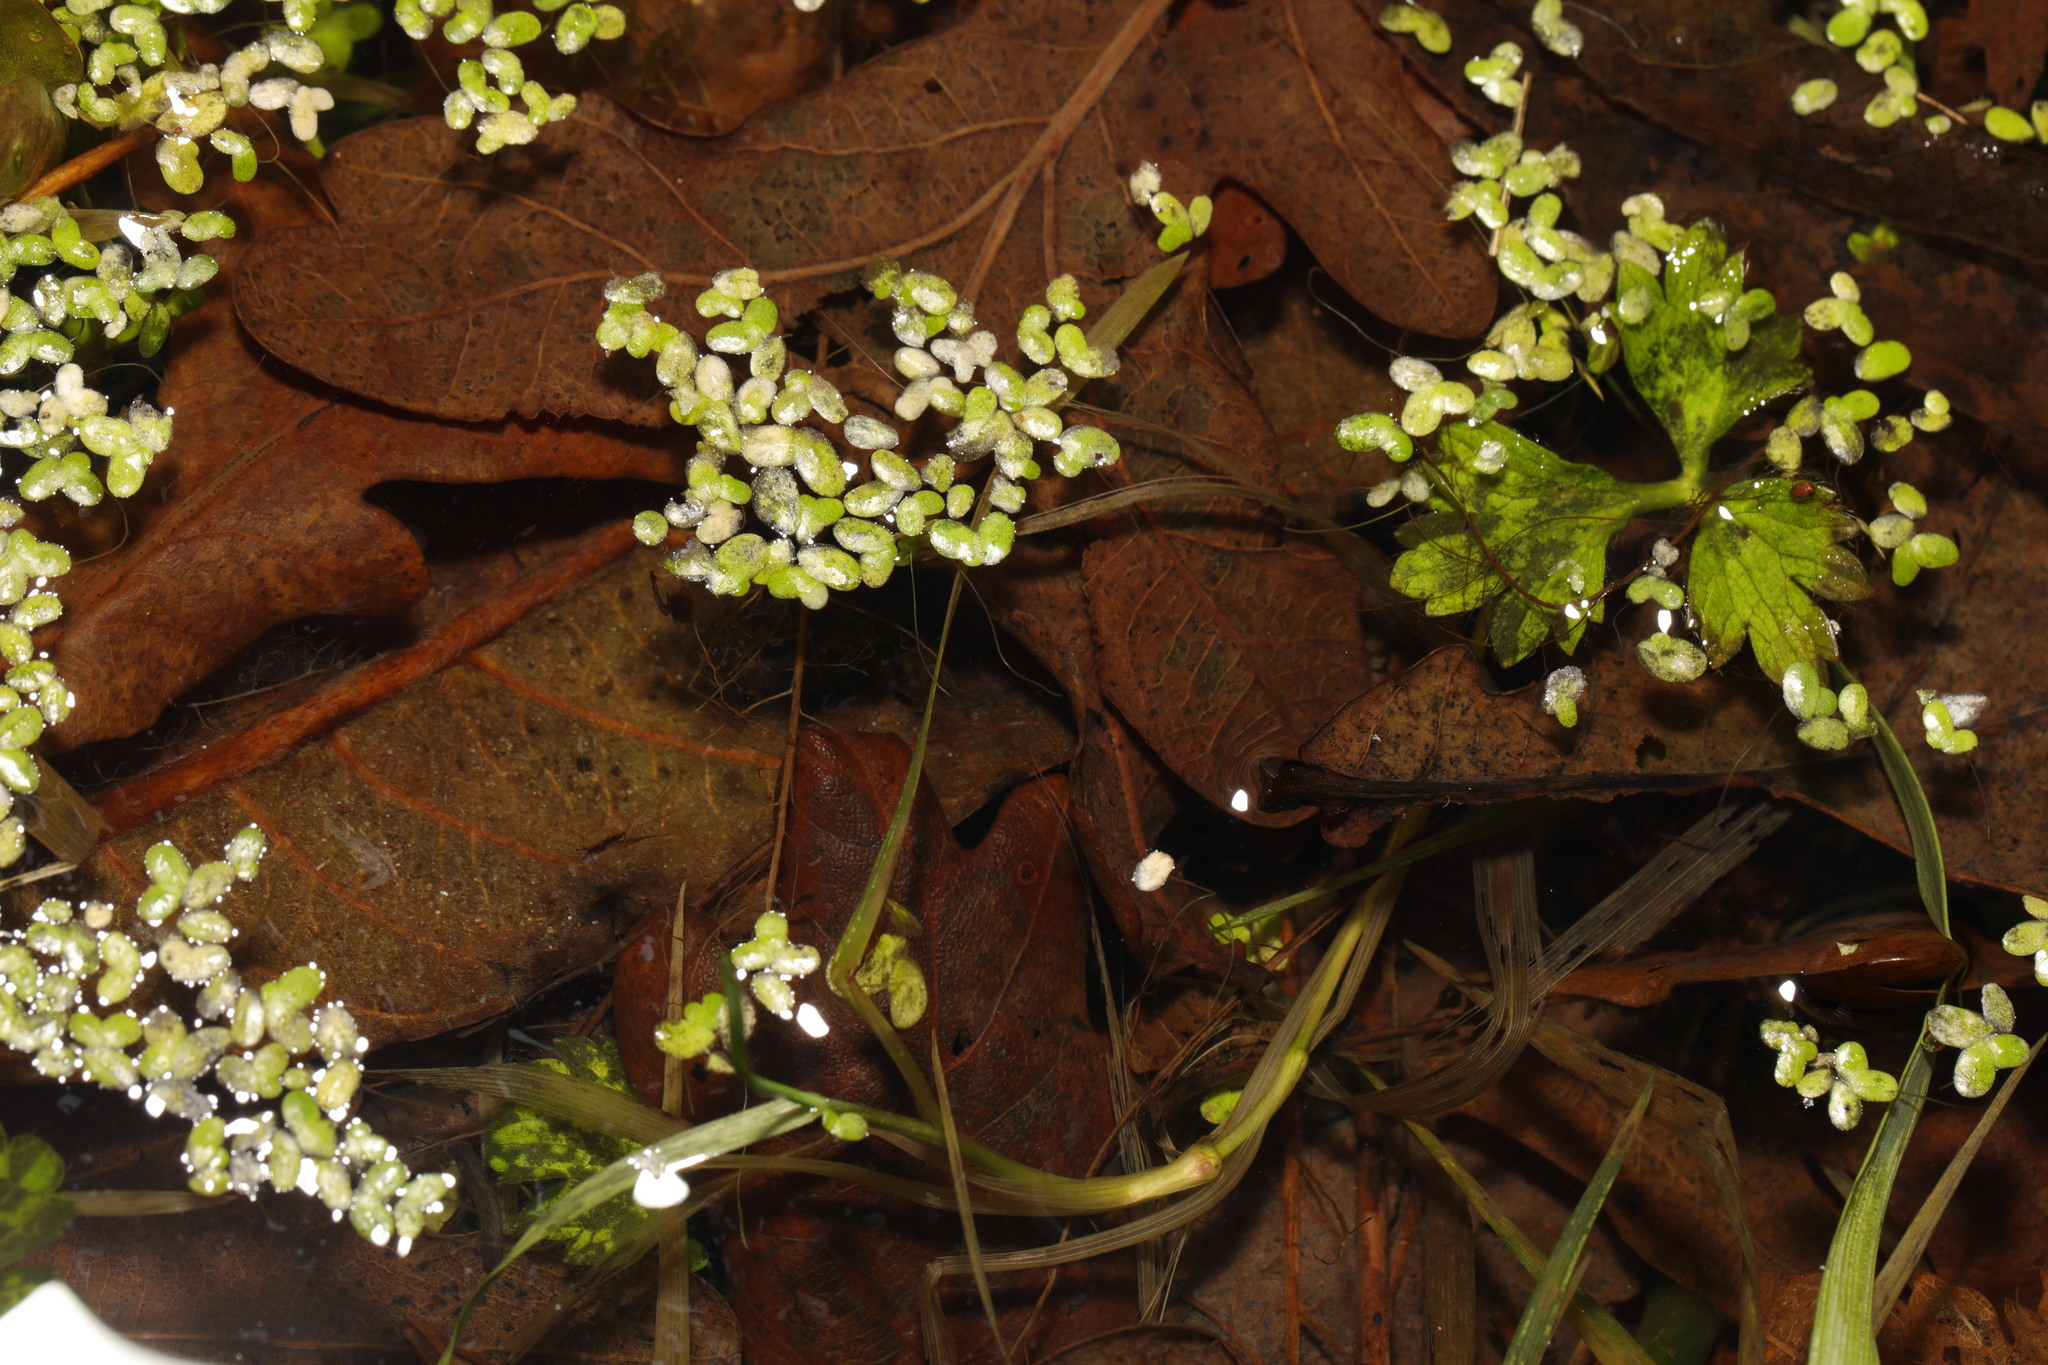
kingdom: Plantae
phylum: Tracheophyta
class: Liliopsida
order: Alismatales
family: Araceae
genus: Lemna
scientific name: Lemna minor
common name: Common duckweed
